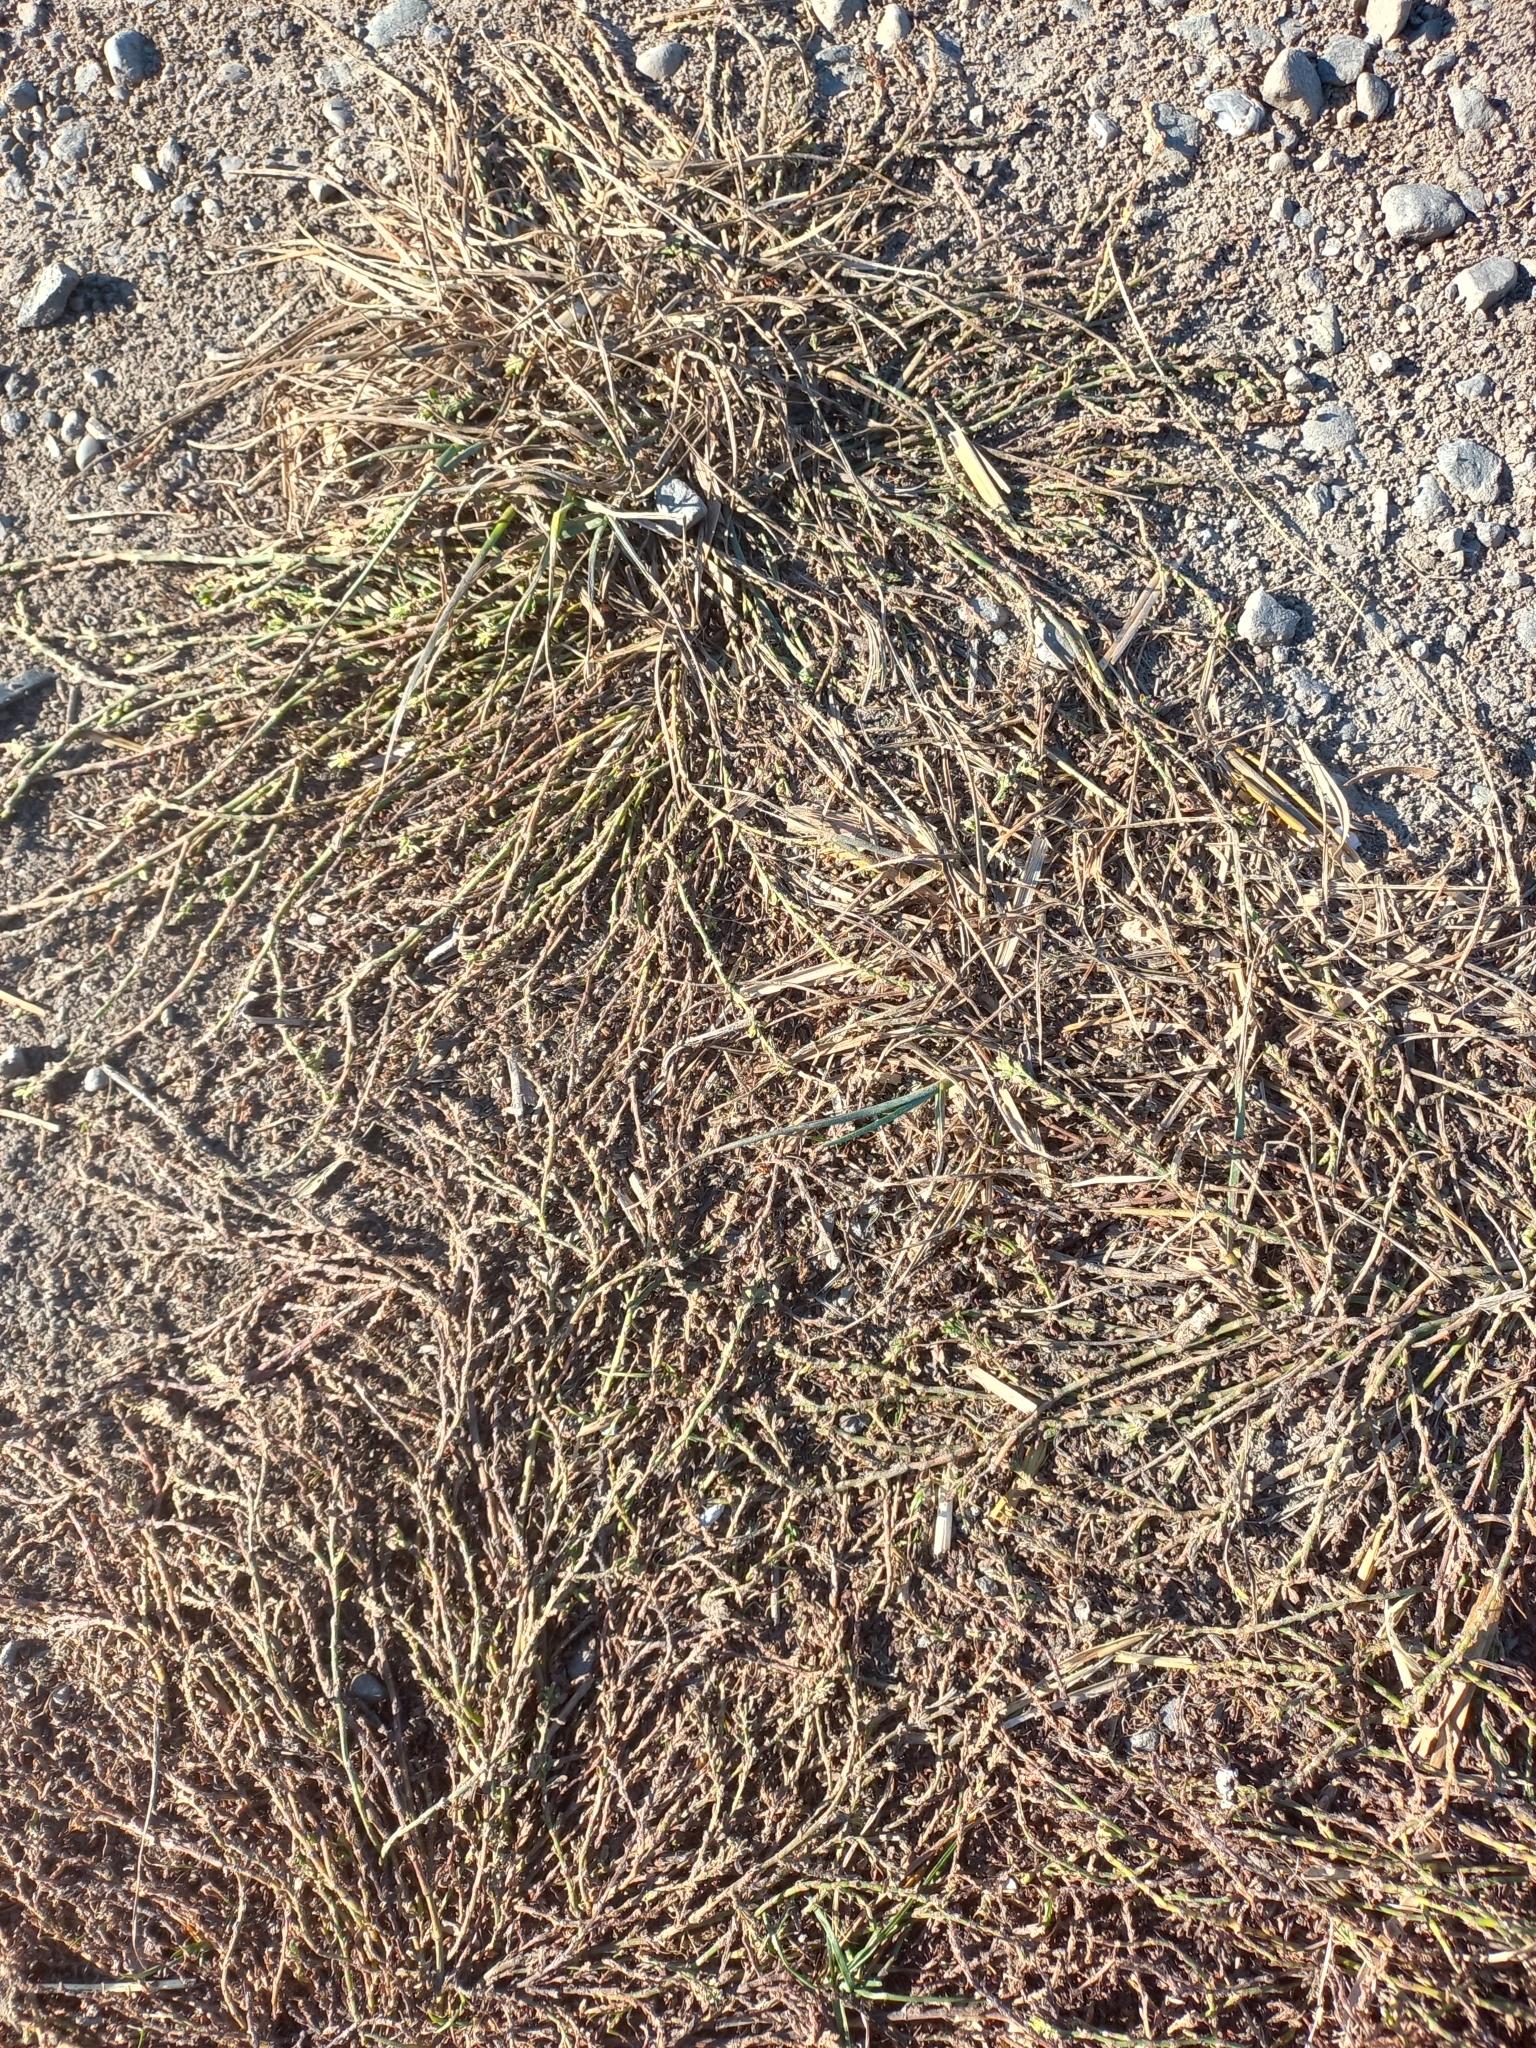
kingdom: Plantae
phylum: Tracheophyta
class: Magnoliopsida
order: Caryophyllales
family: Polygonaceae
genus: Polygonum
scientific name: Polygonum aviculare
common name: Prostrate knotweed
